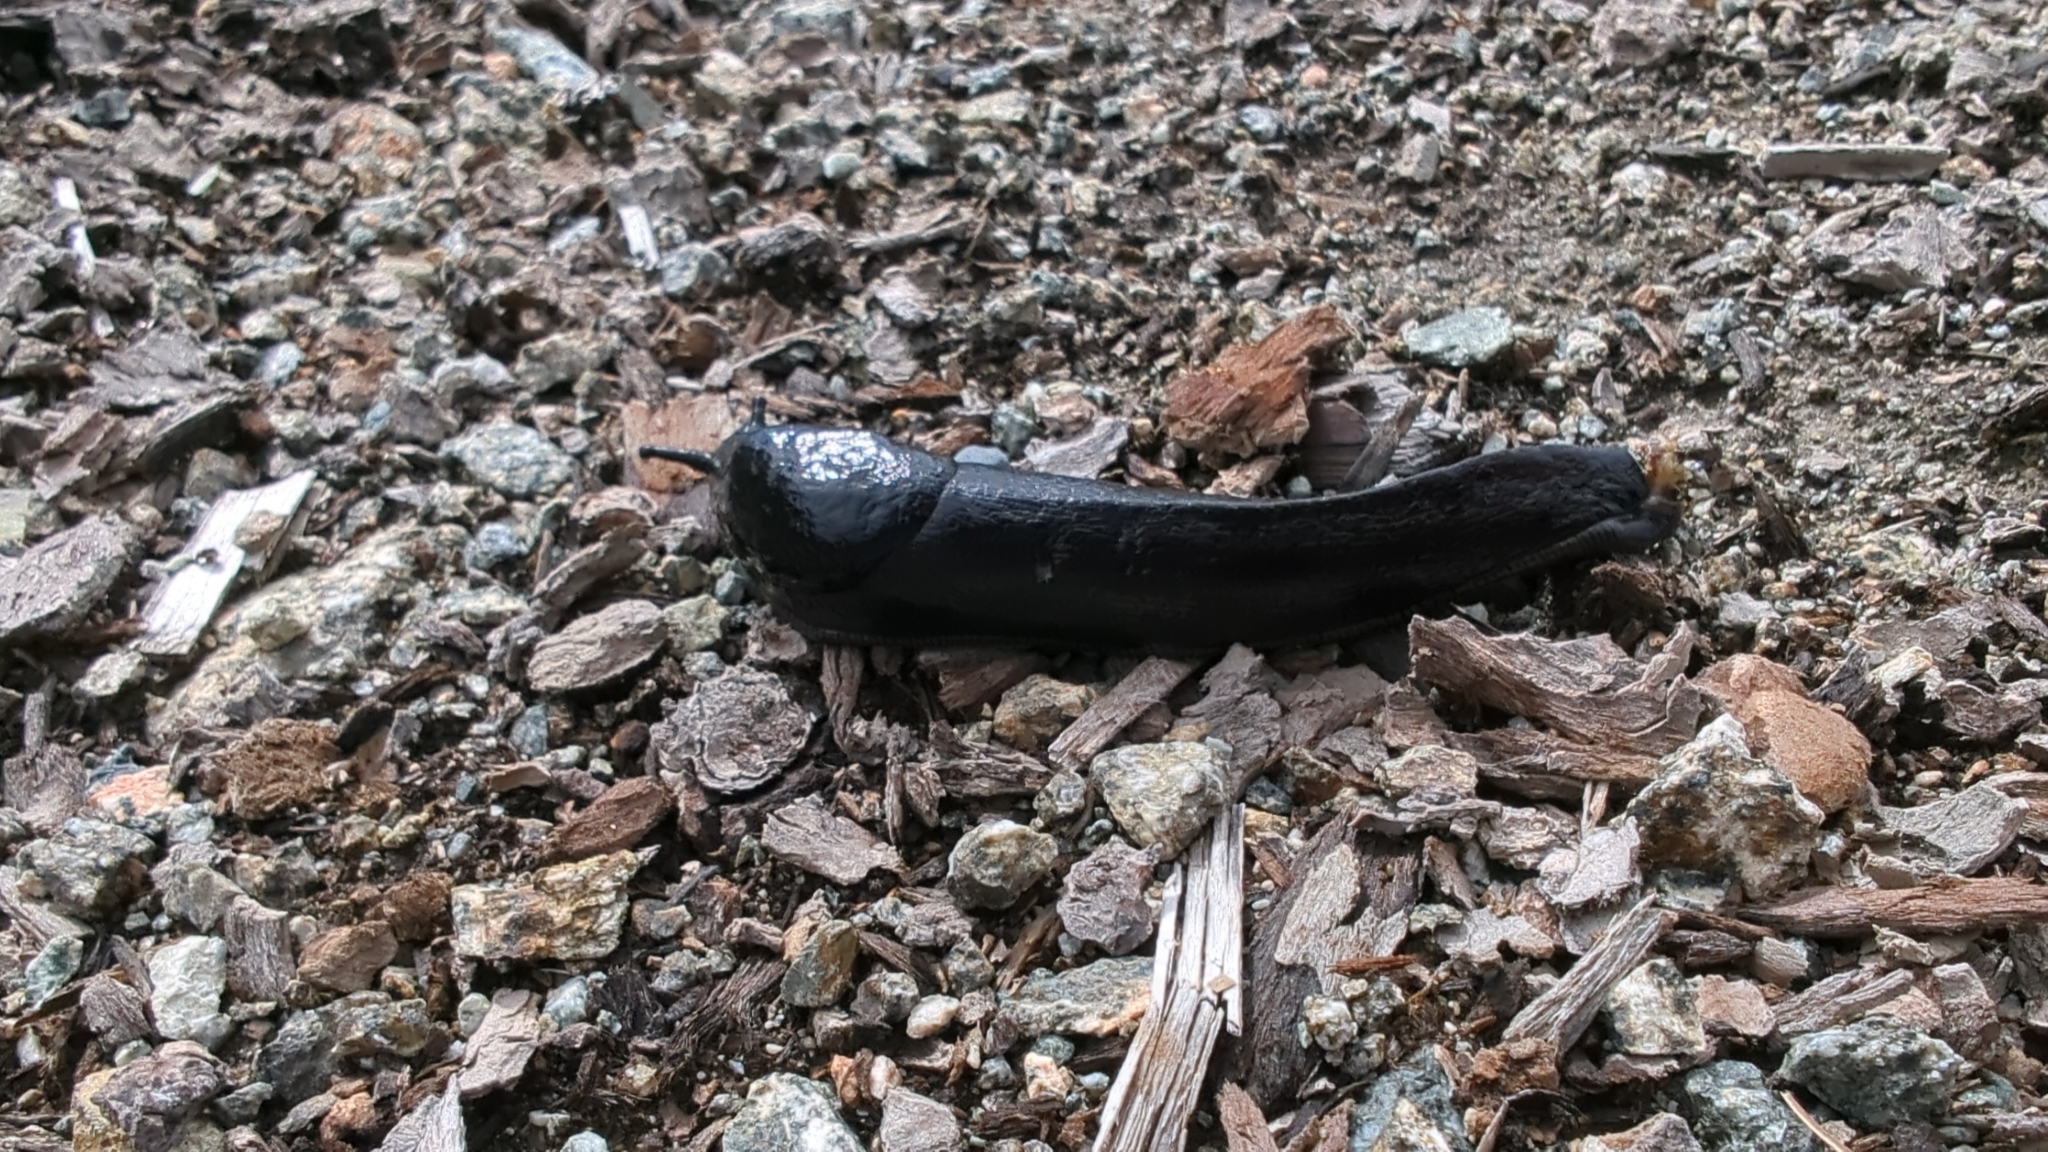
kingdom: Animalia
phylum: Mollusca
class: Gastropoda
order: Stylommatophora
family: Ariolimacidae
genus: Ariolimax
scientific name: Ariolimax columbianus
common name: Pacific banana slug
